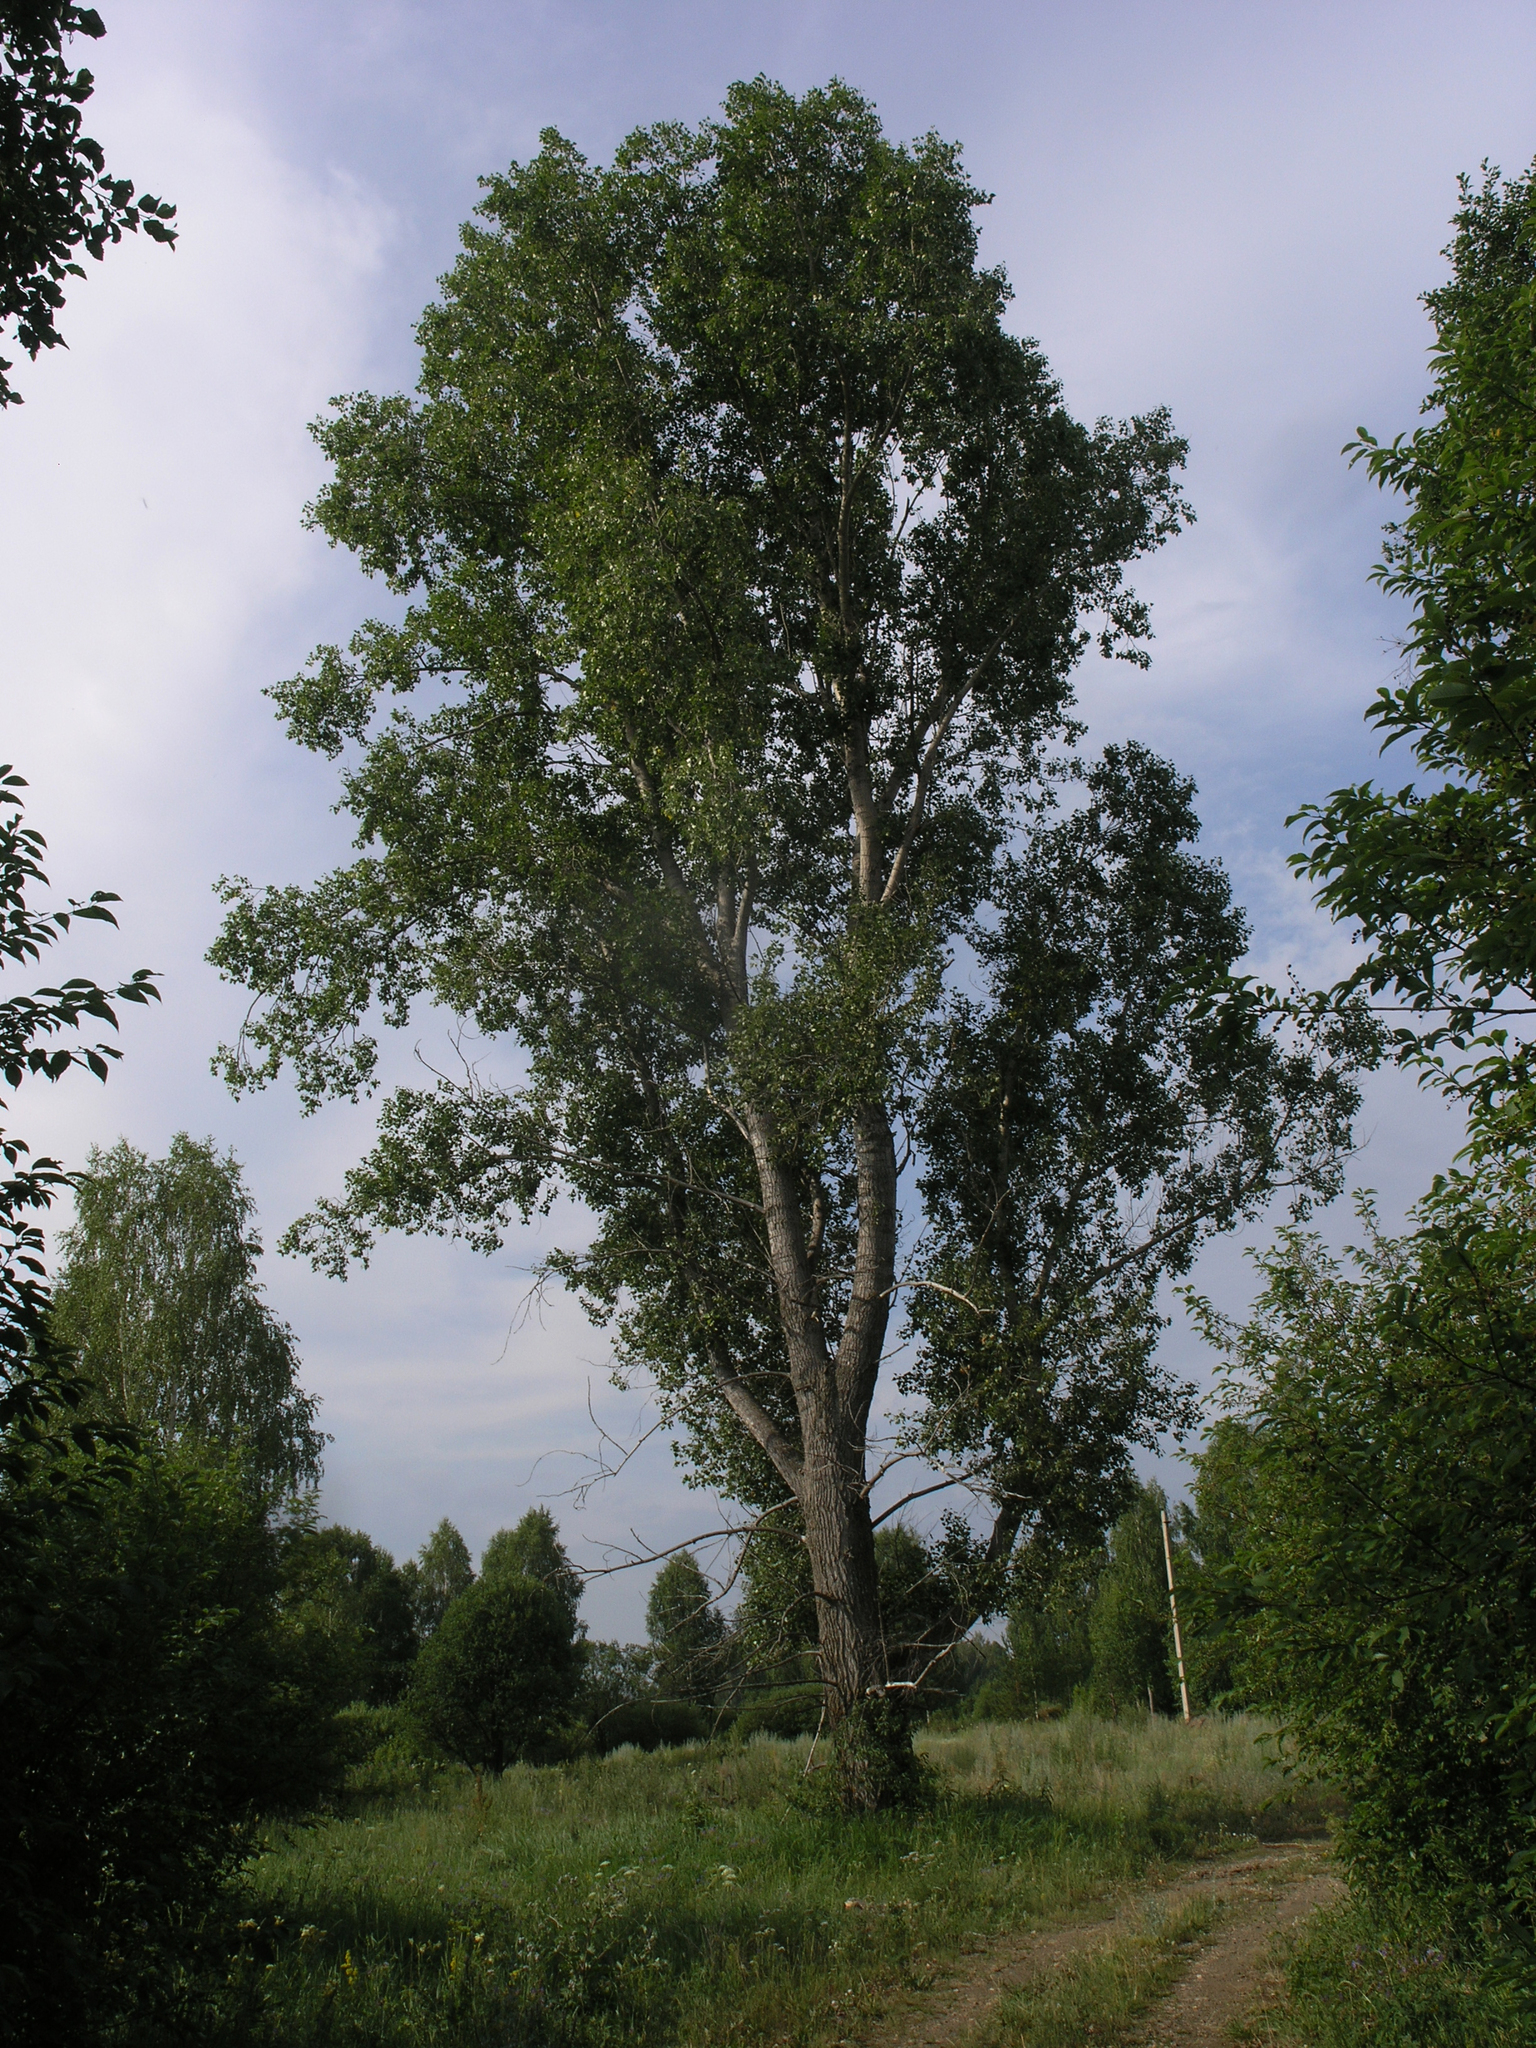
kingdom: Plantae
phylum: Tracheophyta
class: Magnoliopsida
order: Malpighiales
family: Salicaceae
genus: Populus
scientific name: Populus nigra
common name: Black poplar
